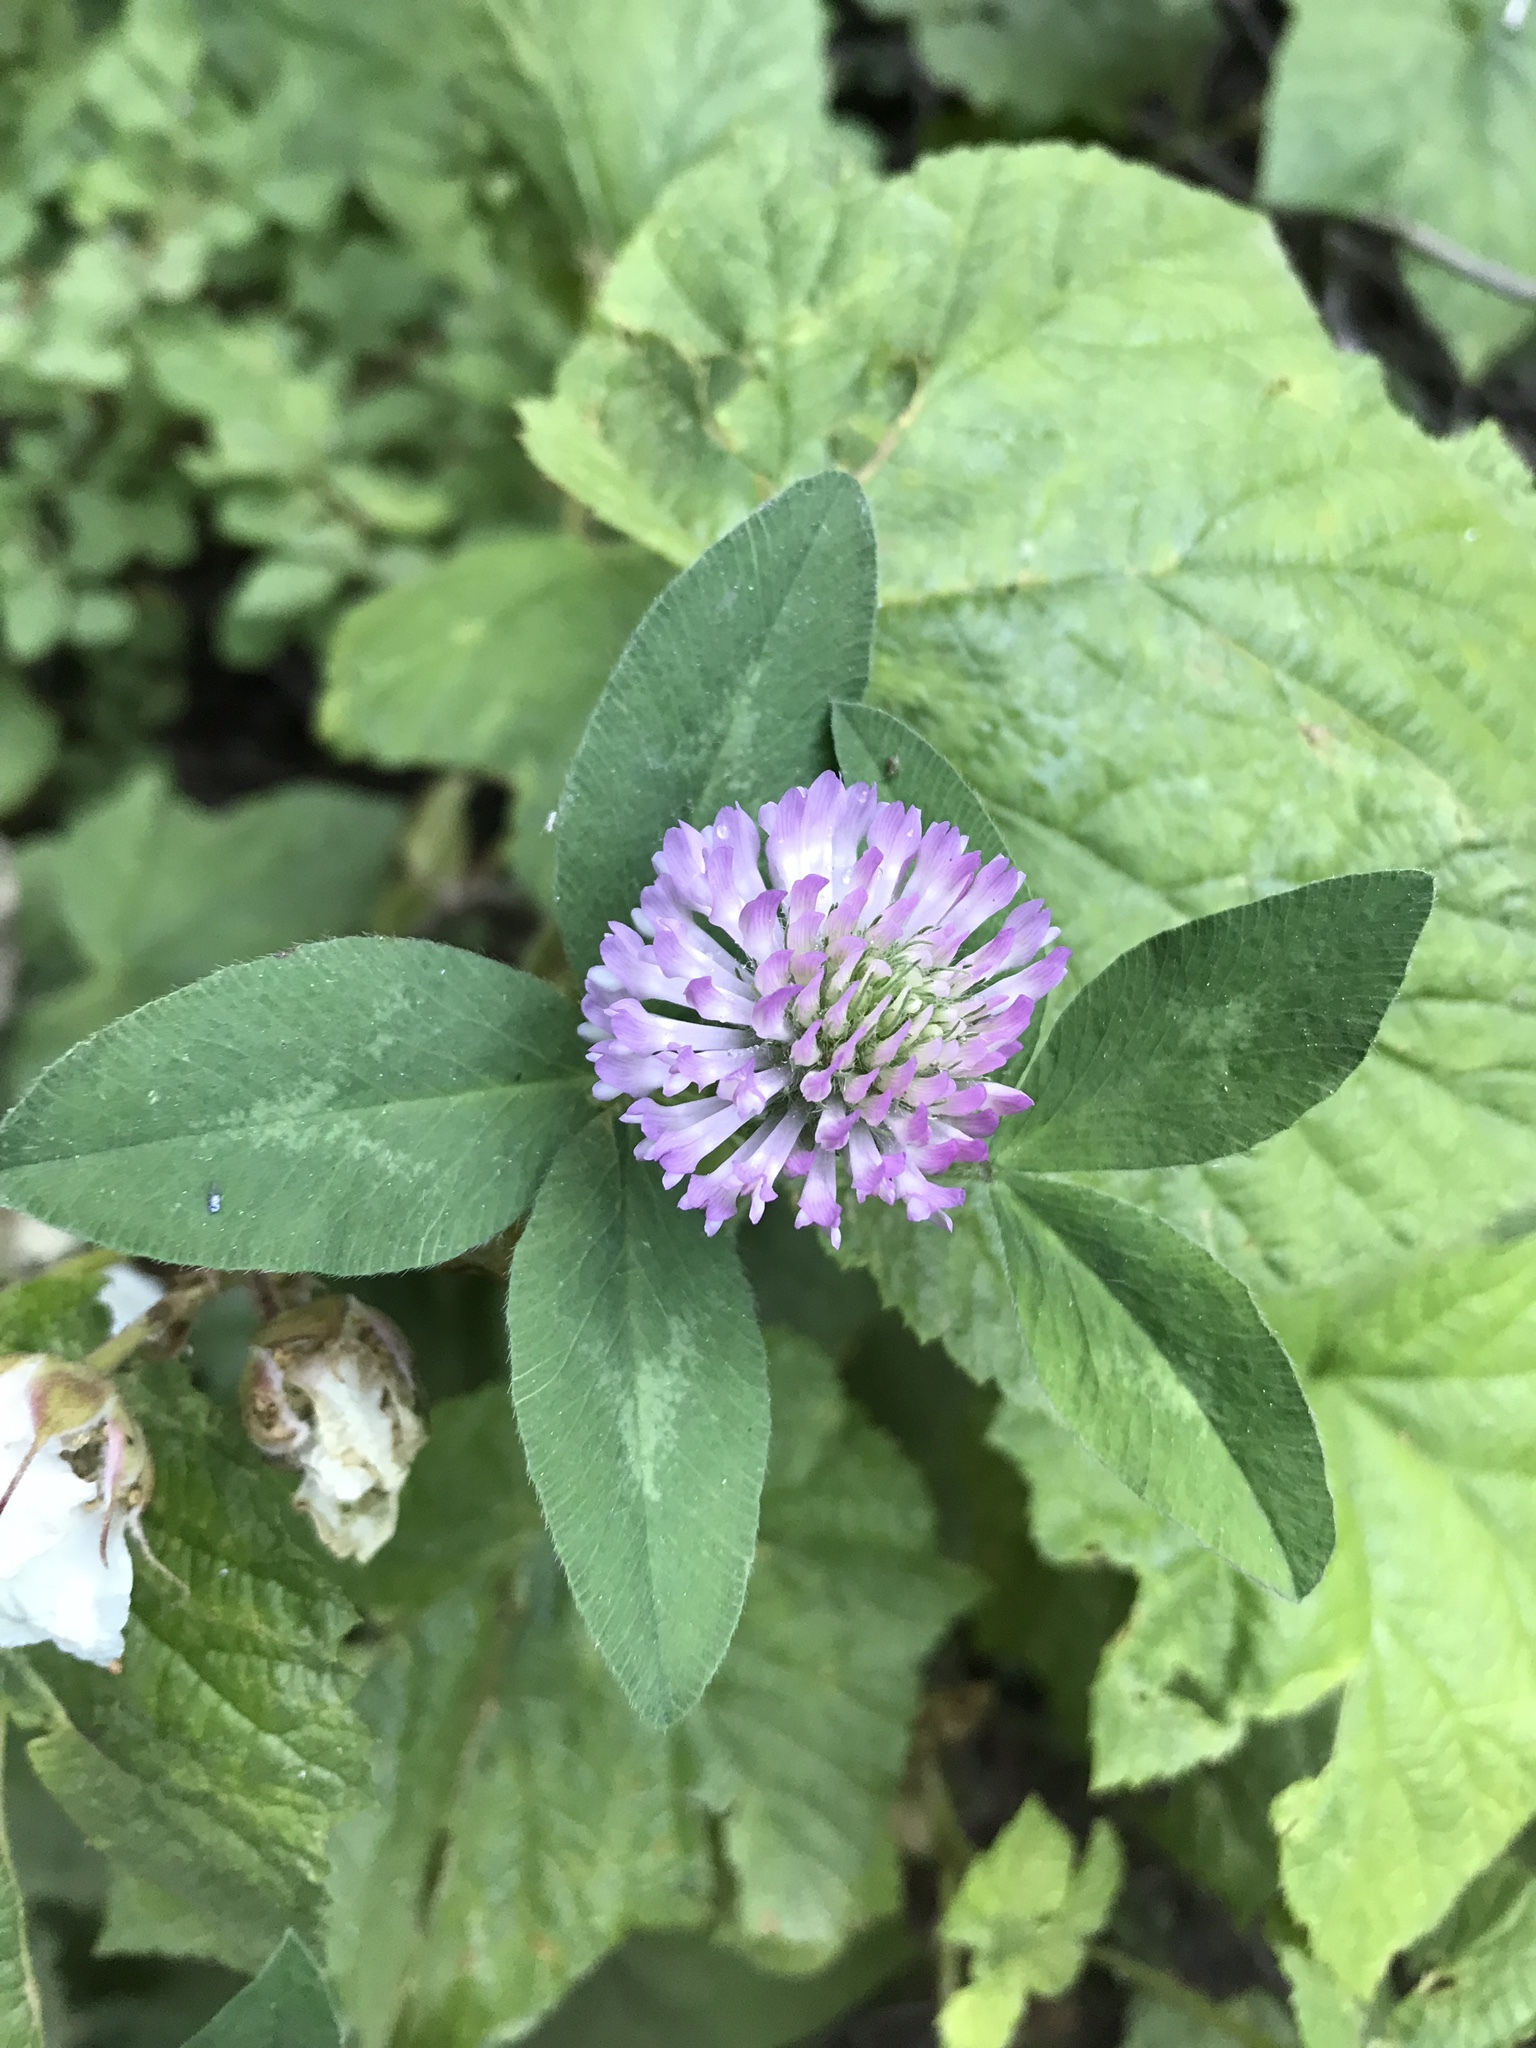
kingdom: Plantae
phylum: Tracheophyta
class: Magnoliopsida
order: Fabales
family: Fabaceae
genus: Trifolium
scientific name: Trifolium pratense
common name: Red clover
